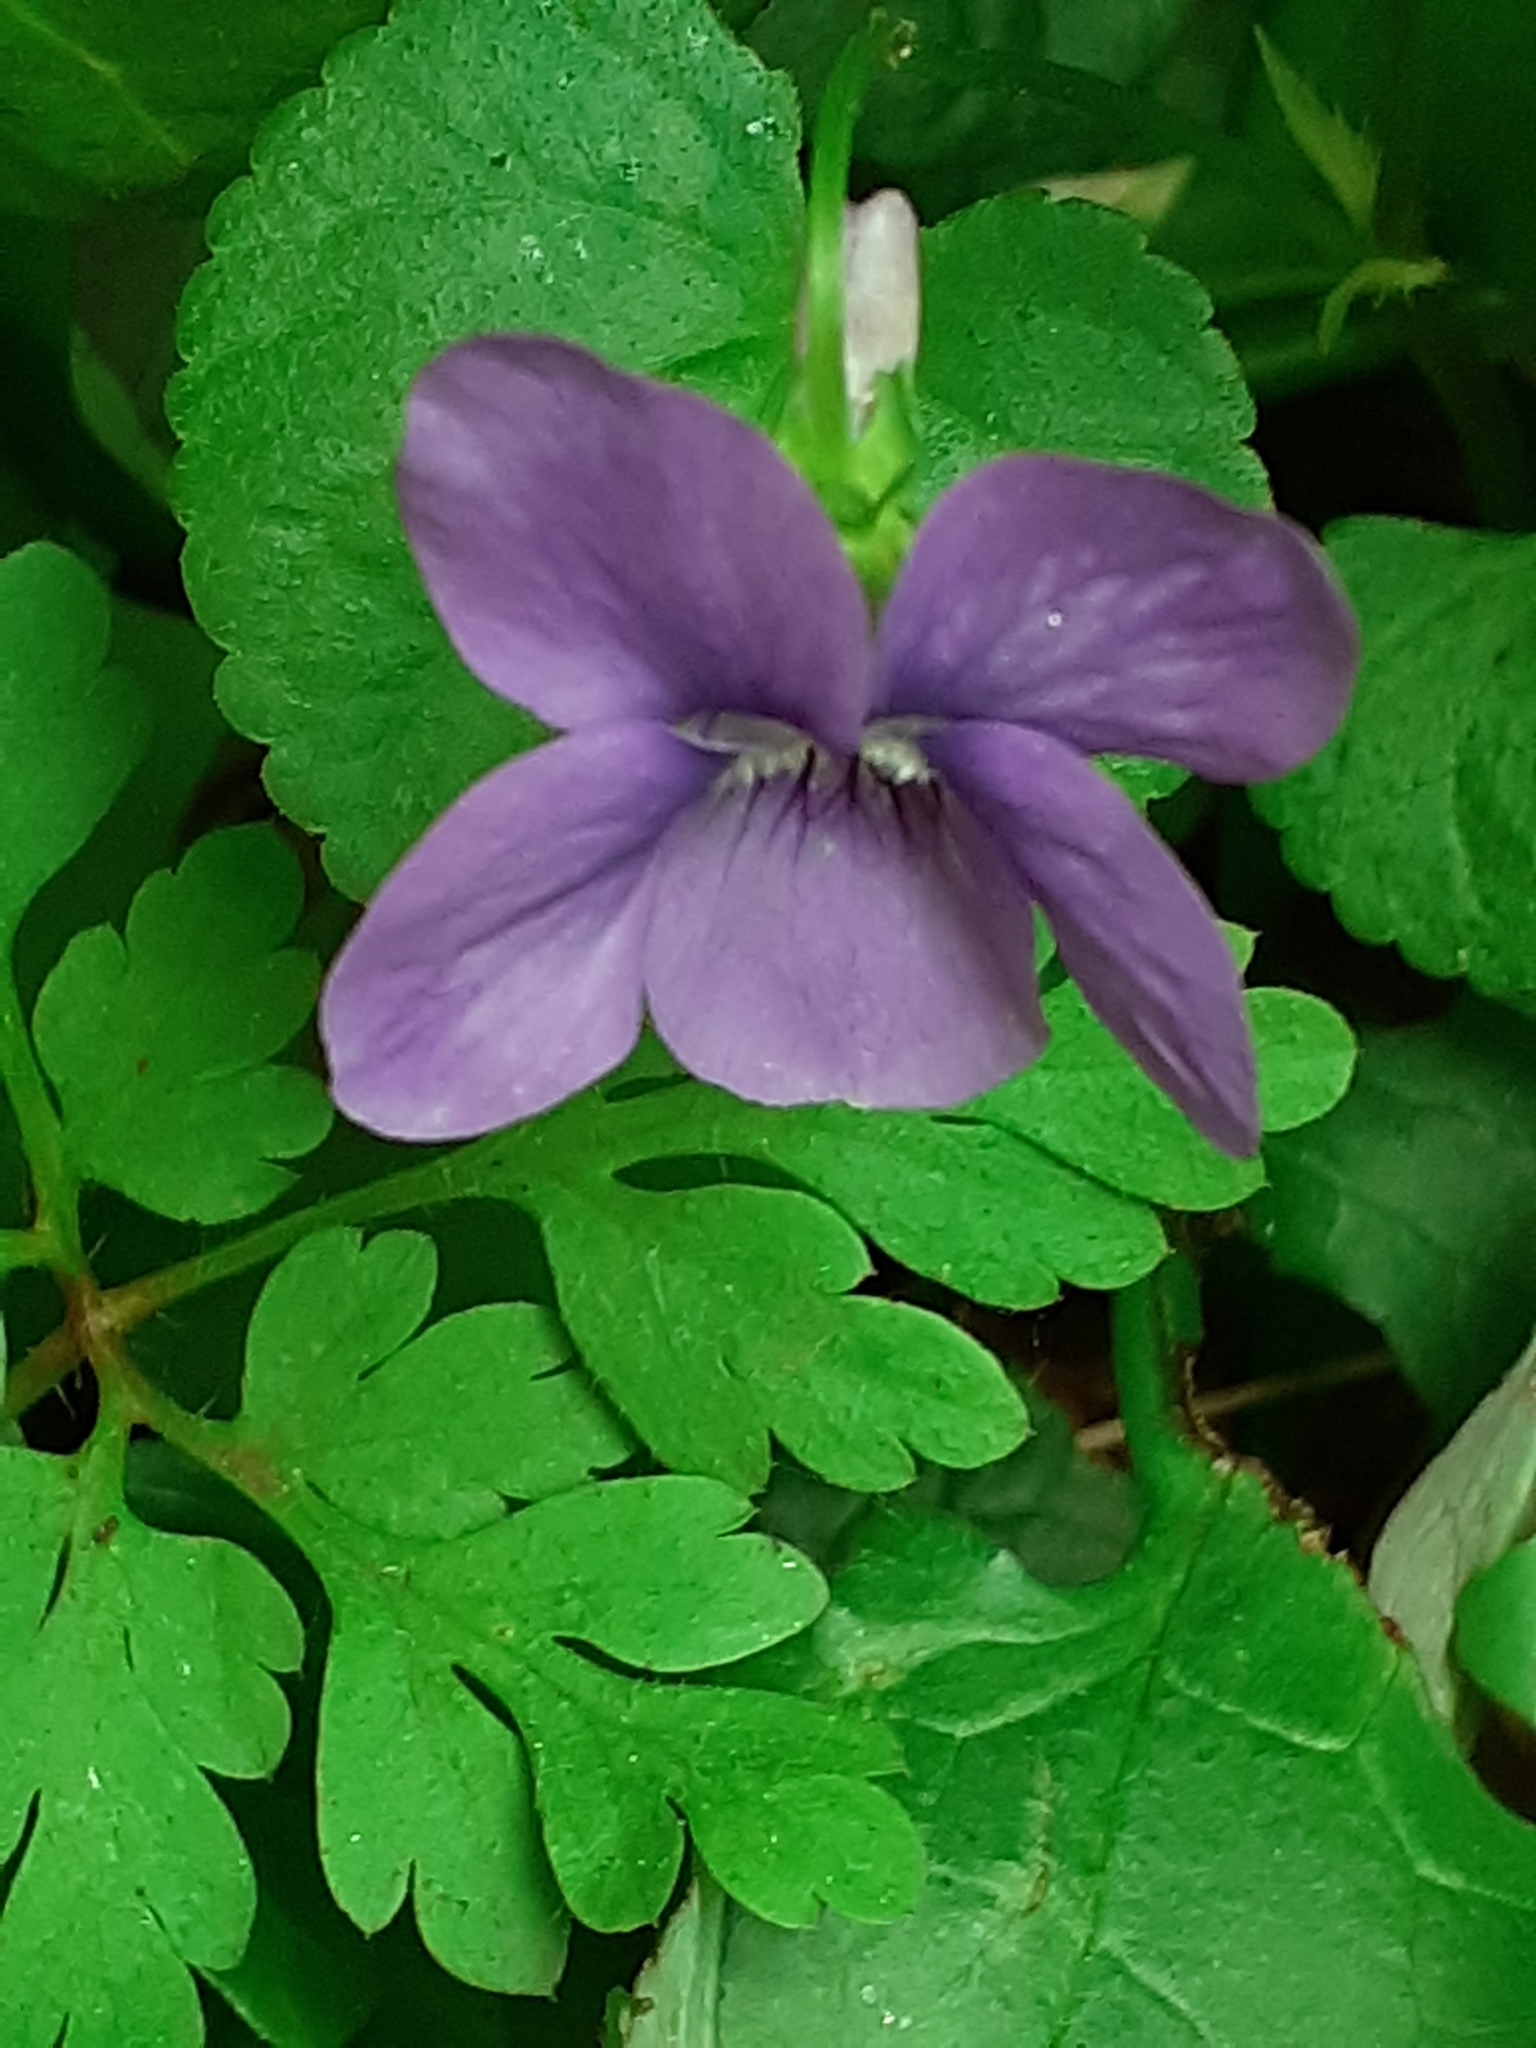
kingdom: Plantae
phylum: Tracheophyta
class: Magnoliopsida
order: Malpighiales
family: Violaceae
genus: Viola
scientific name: Viola riviniana
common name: Common dog-violet
